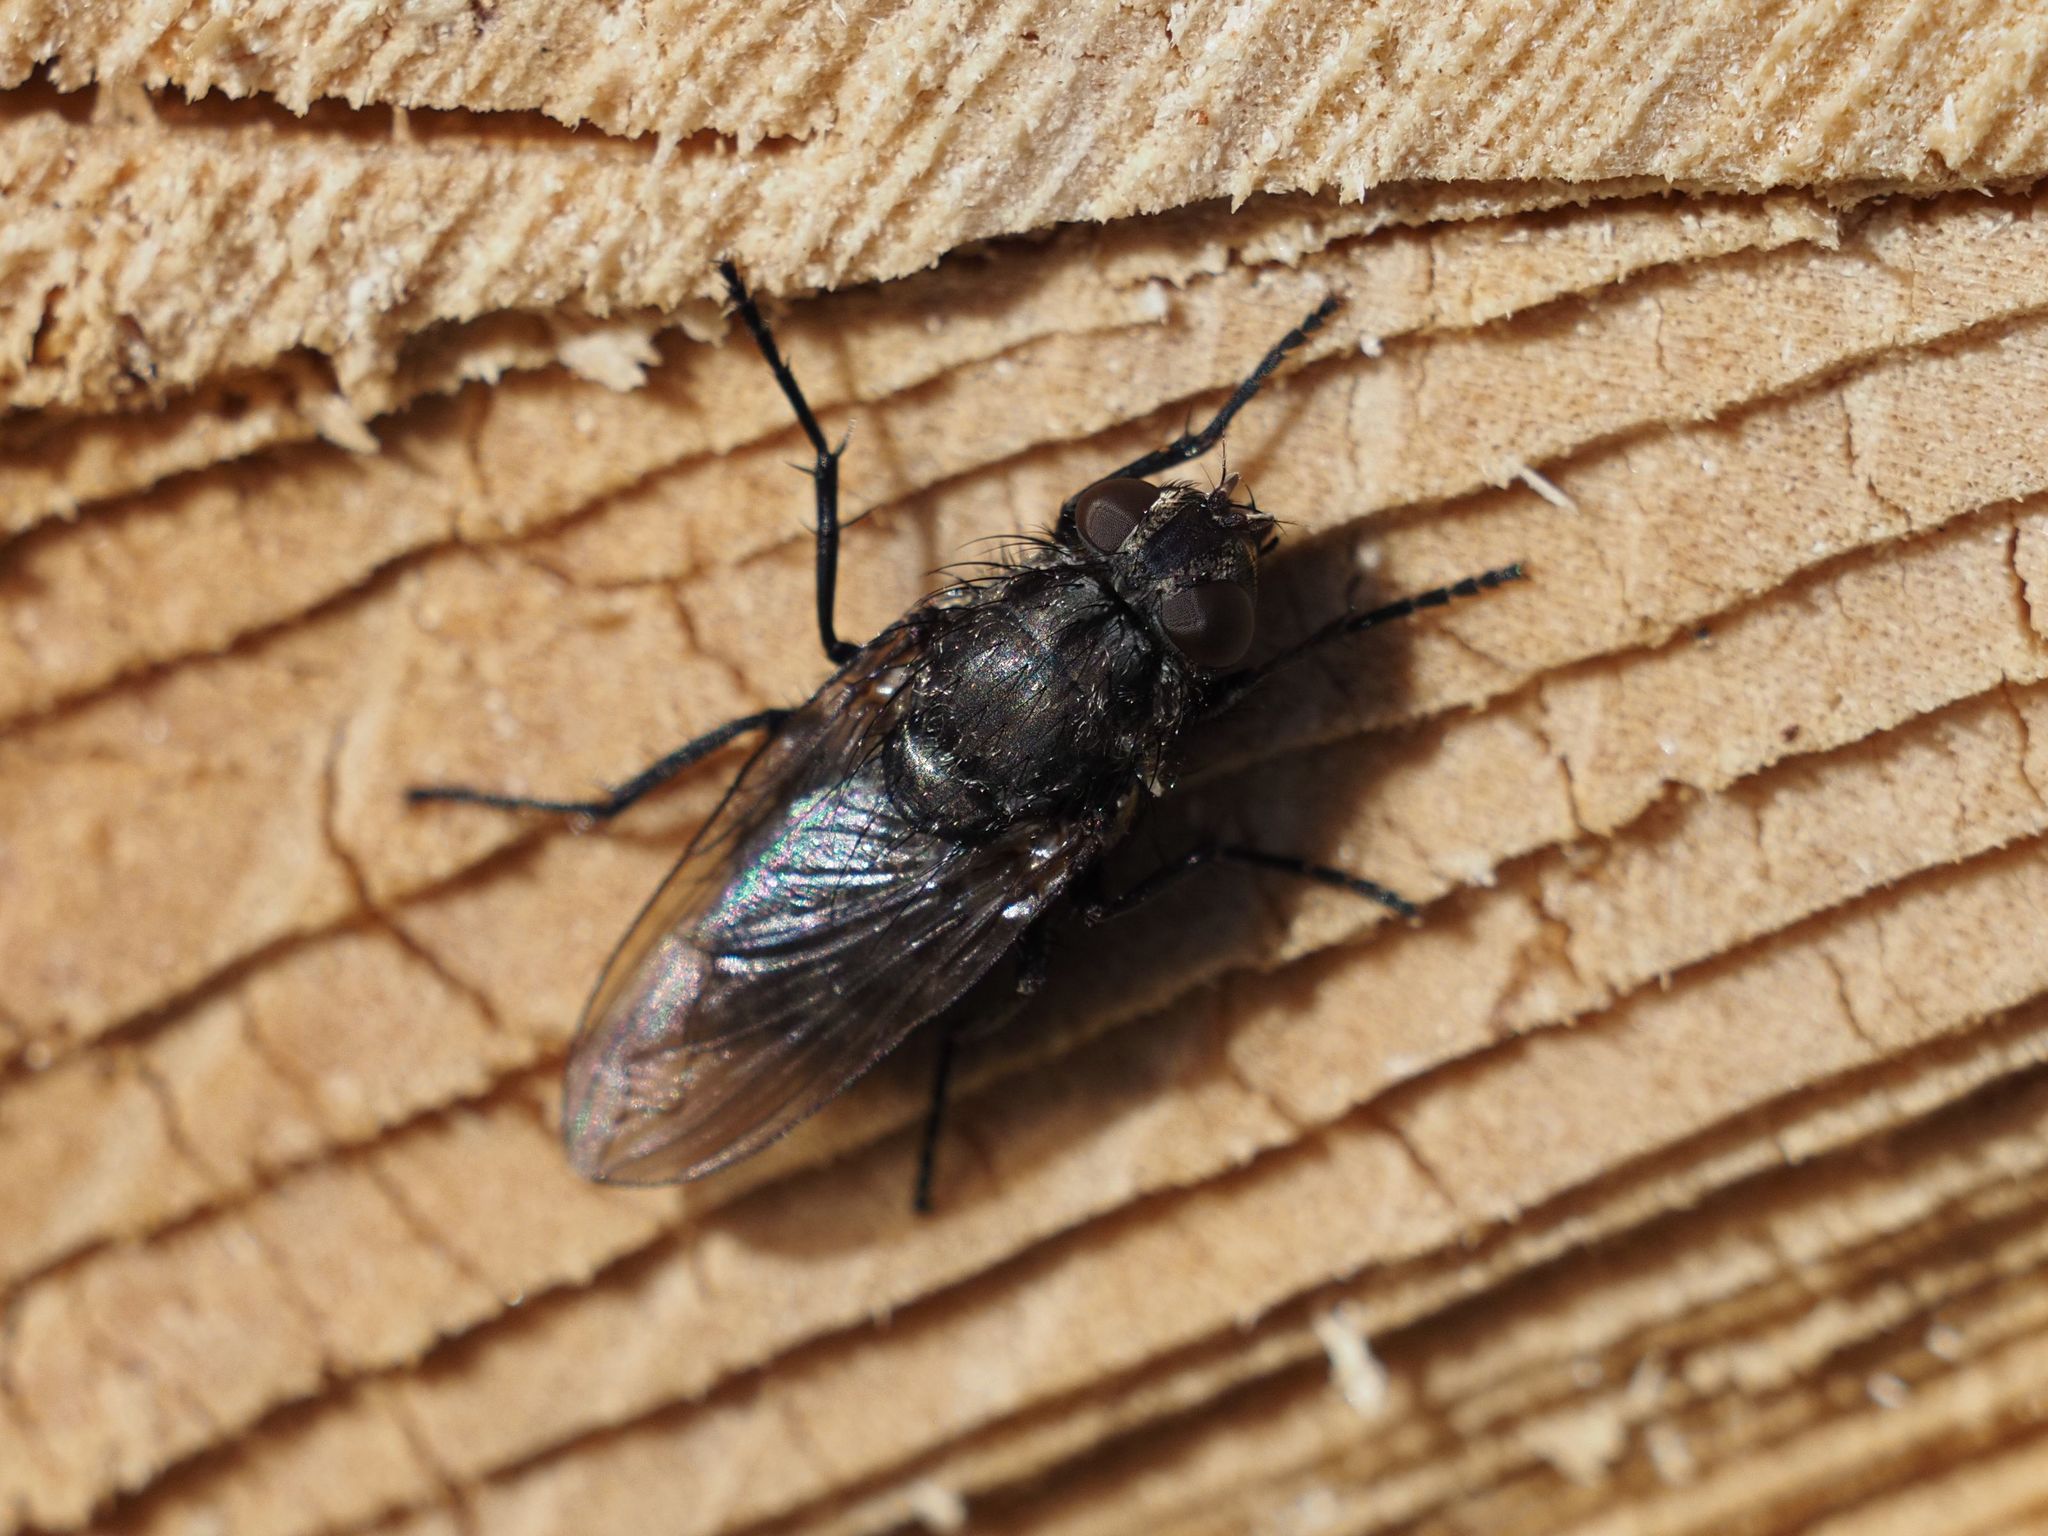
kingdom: Animalia
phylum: Arthropoda
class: Insecta
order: Diptera
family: Polleniidae
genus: Pollenia
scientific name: Pollenia vagabunda
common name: Vagabund cluster fly
